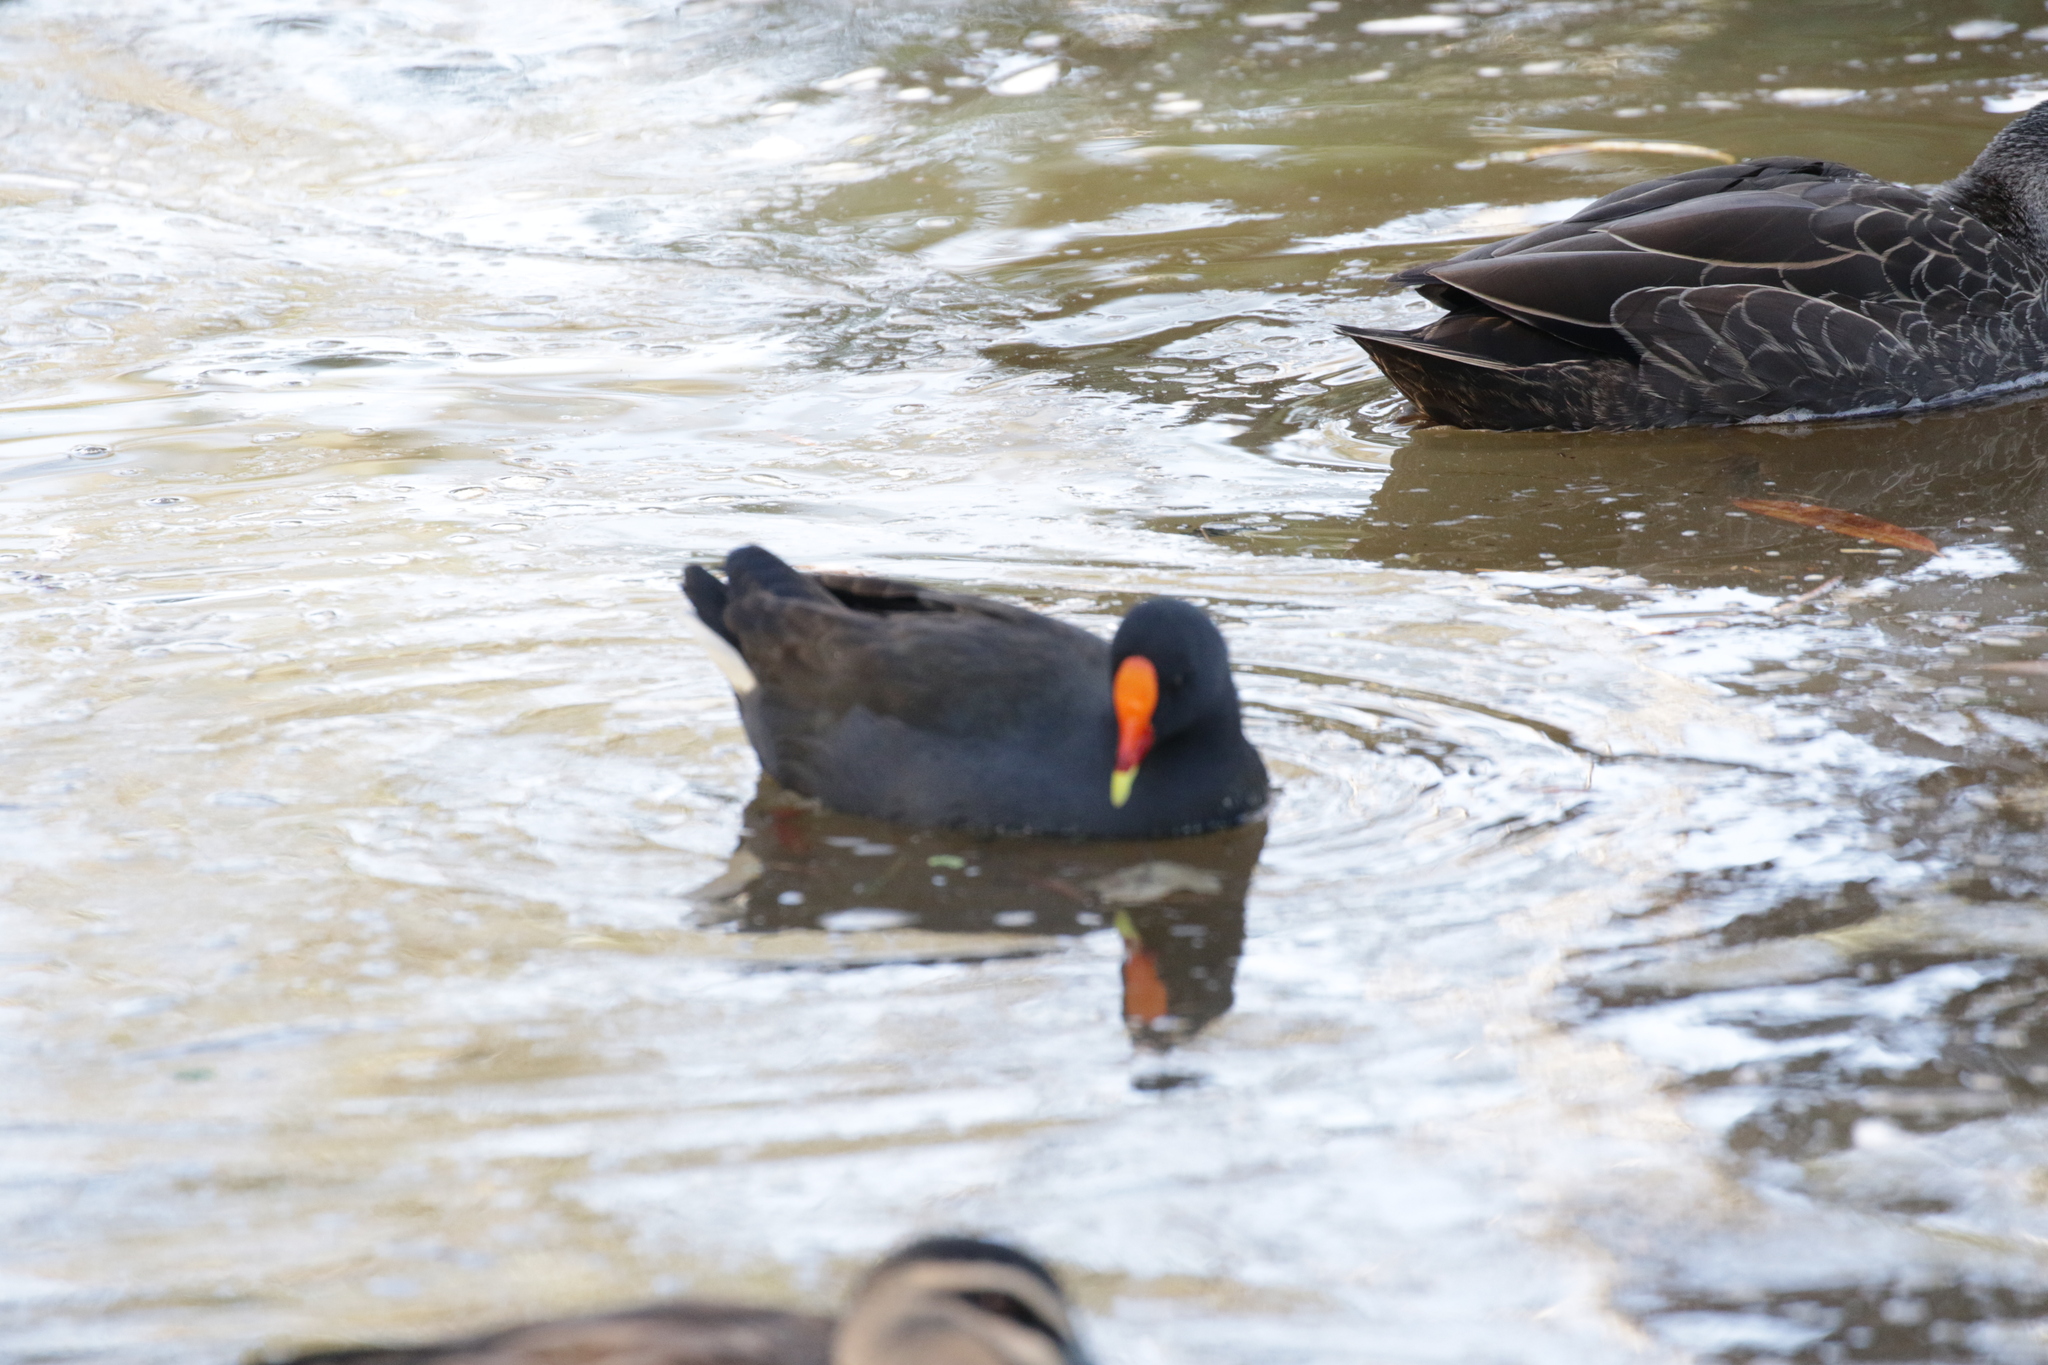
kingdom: Animalia
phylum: Chordata
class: Aves
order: Gruiformes
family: Rallidae
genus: Gallinula
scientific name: Gallinula tenebrosa
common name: Dusky moorhen
